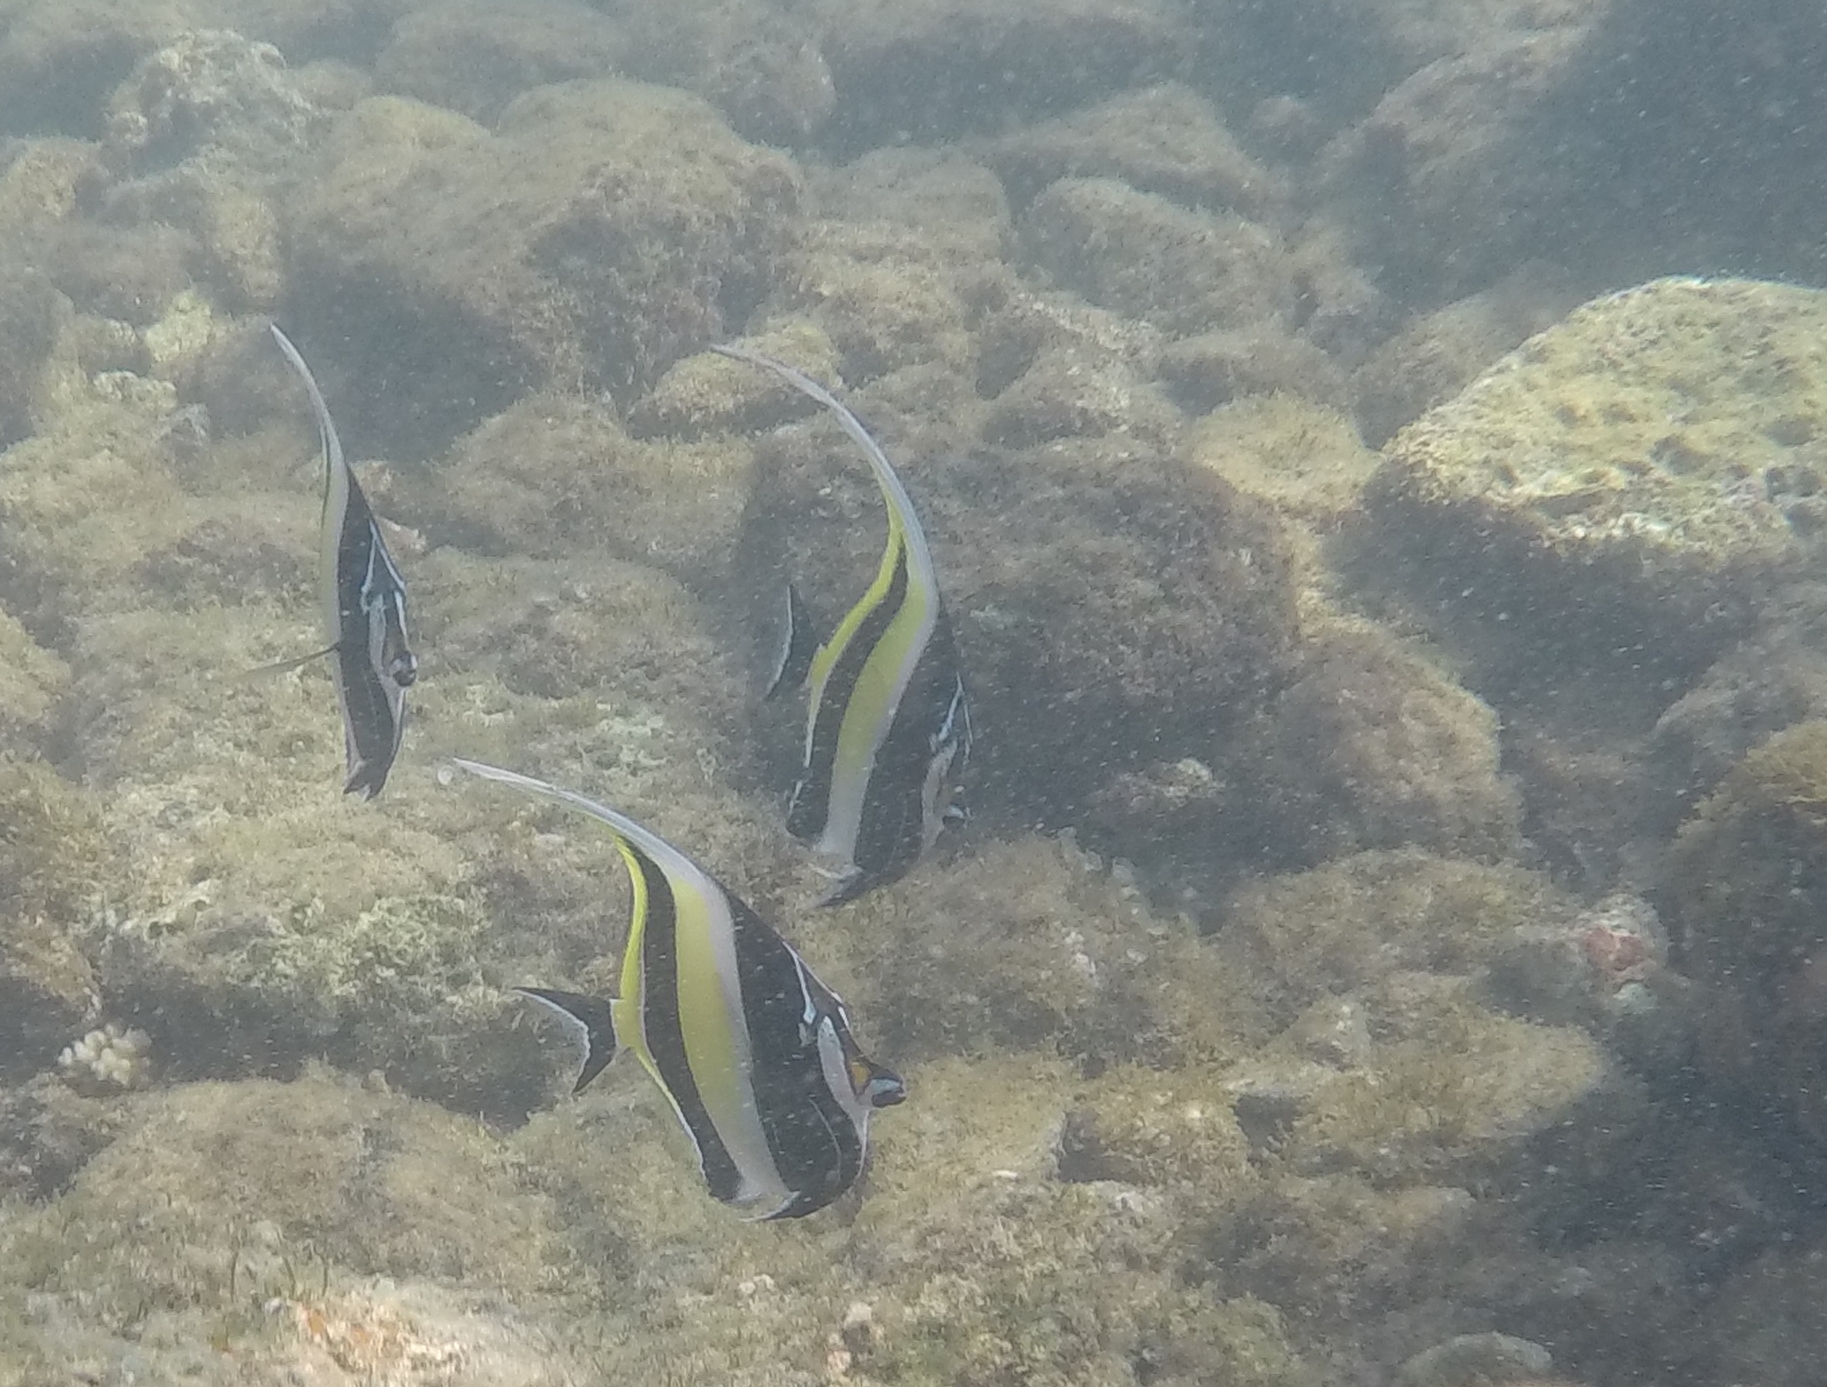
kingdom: Animalia
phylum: Chordata
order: Perciformes
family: Zanclidae
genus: Zanclus
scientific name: Zanclus cornutus
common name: Moorish idol
